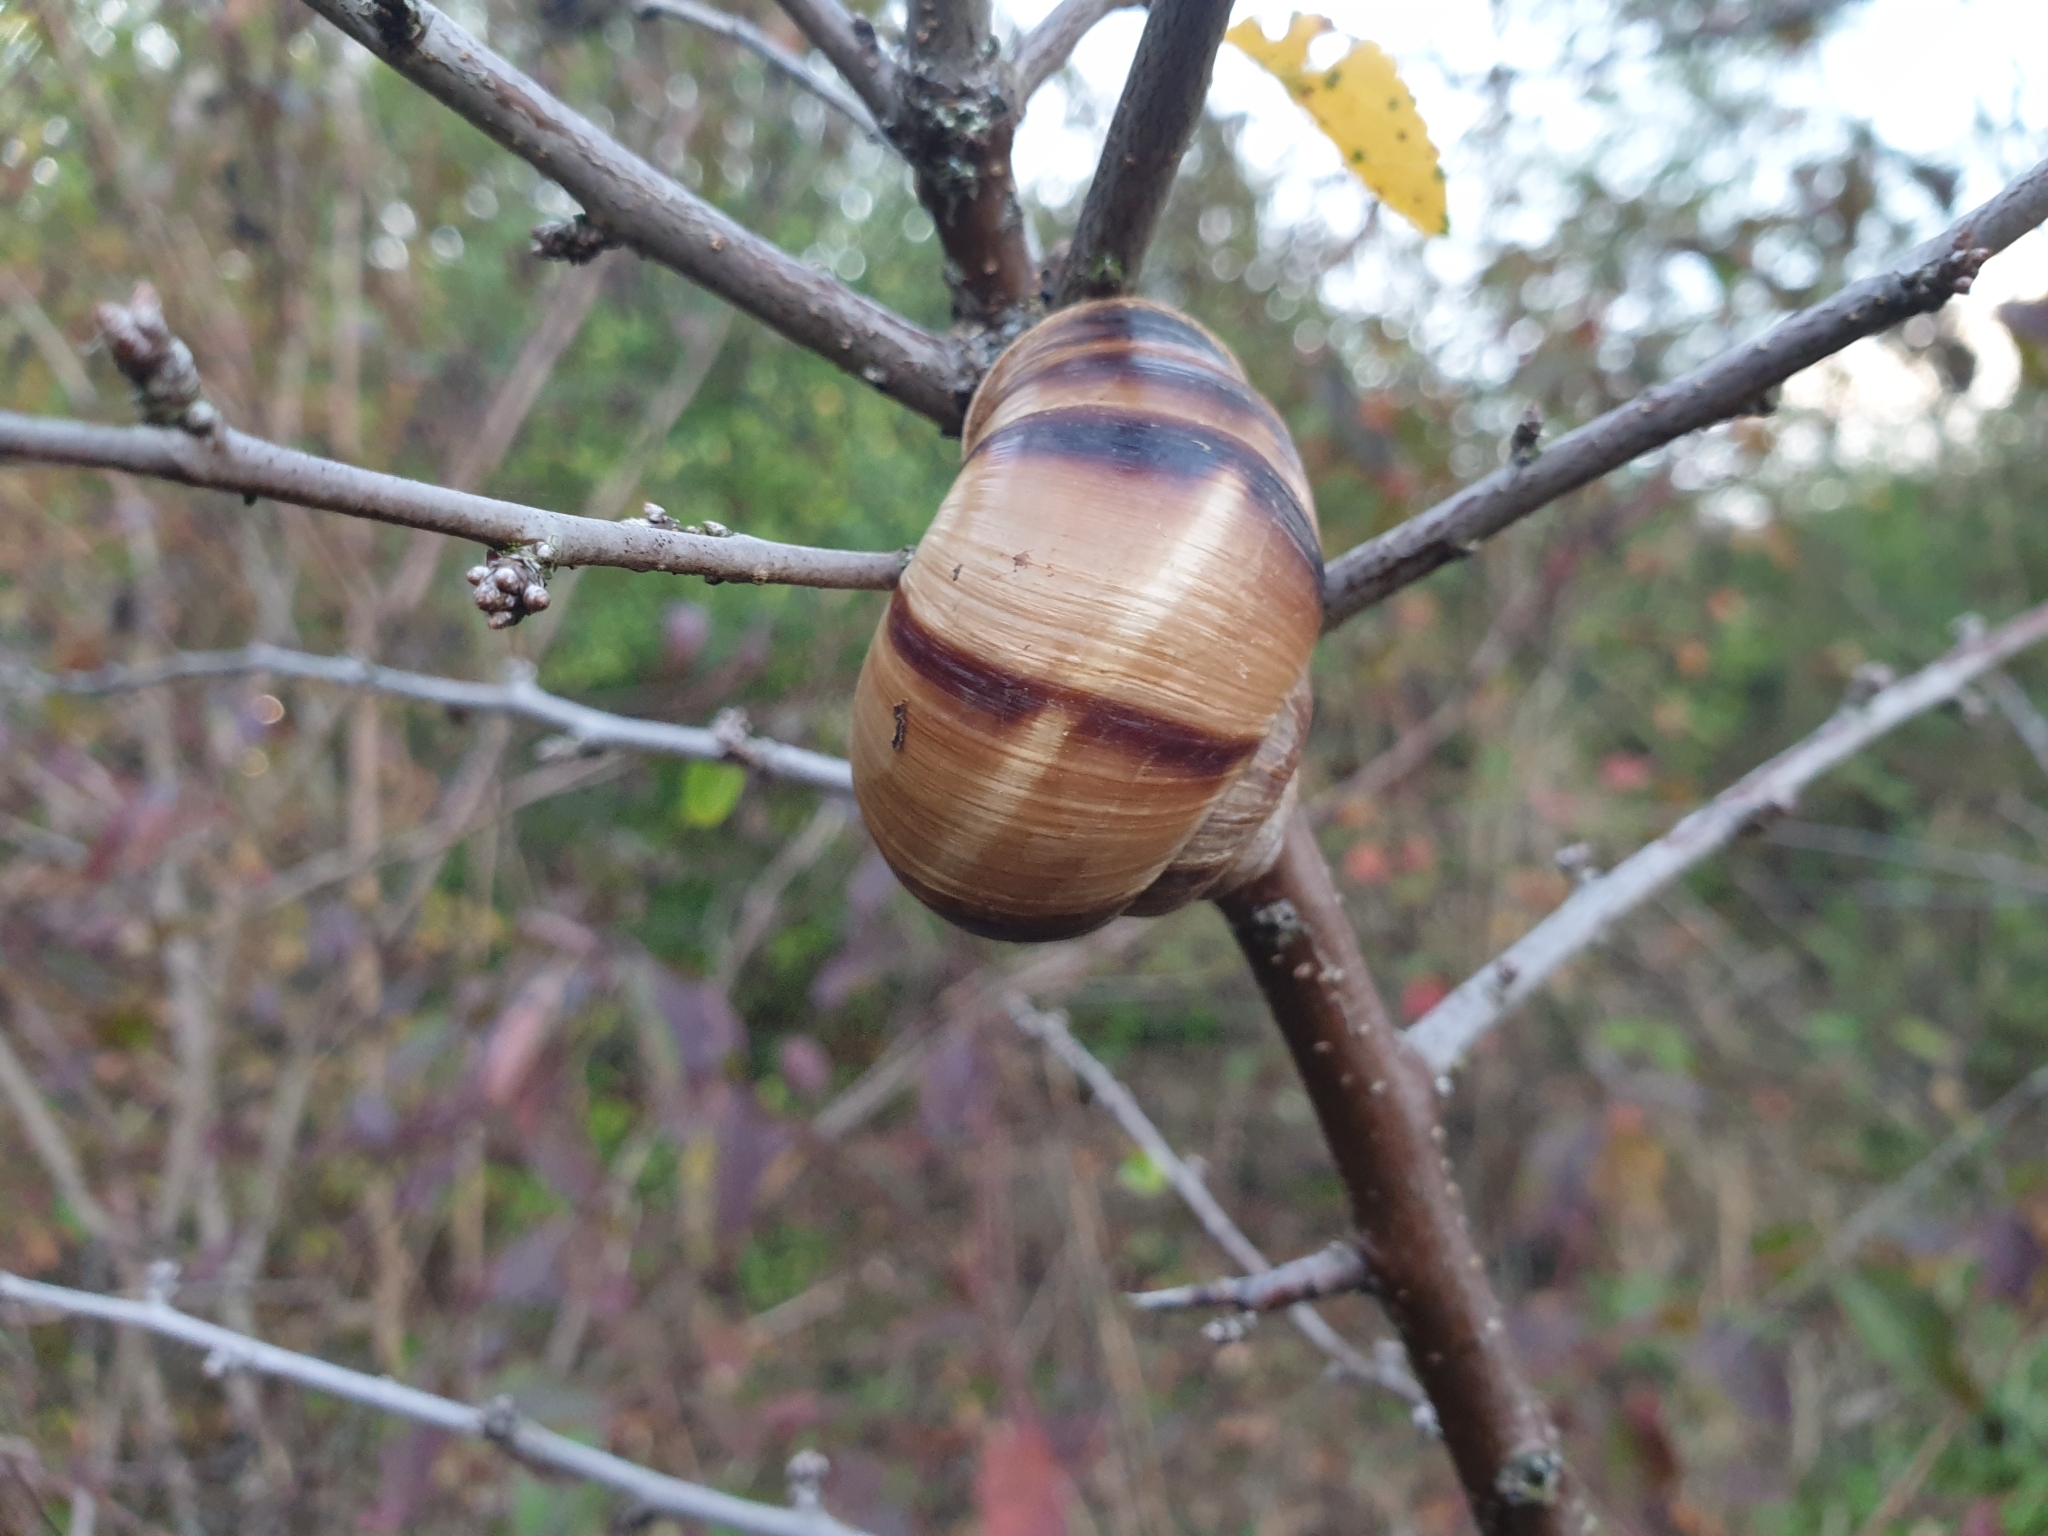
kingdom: Animalia
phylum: Mollusca
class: Gastropoda
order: Stylommatophora
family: Helicidae
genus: Helix
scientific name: Helix lucorum
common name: Turkish snail
